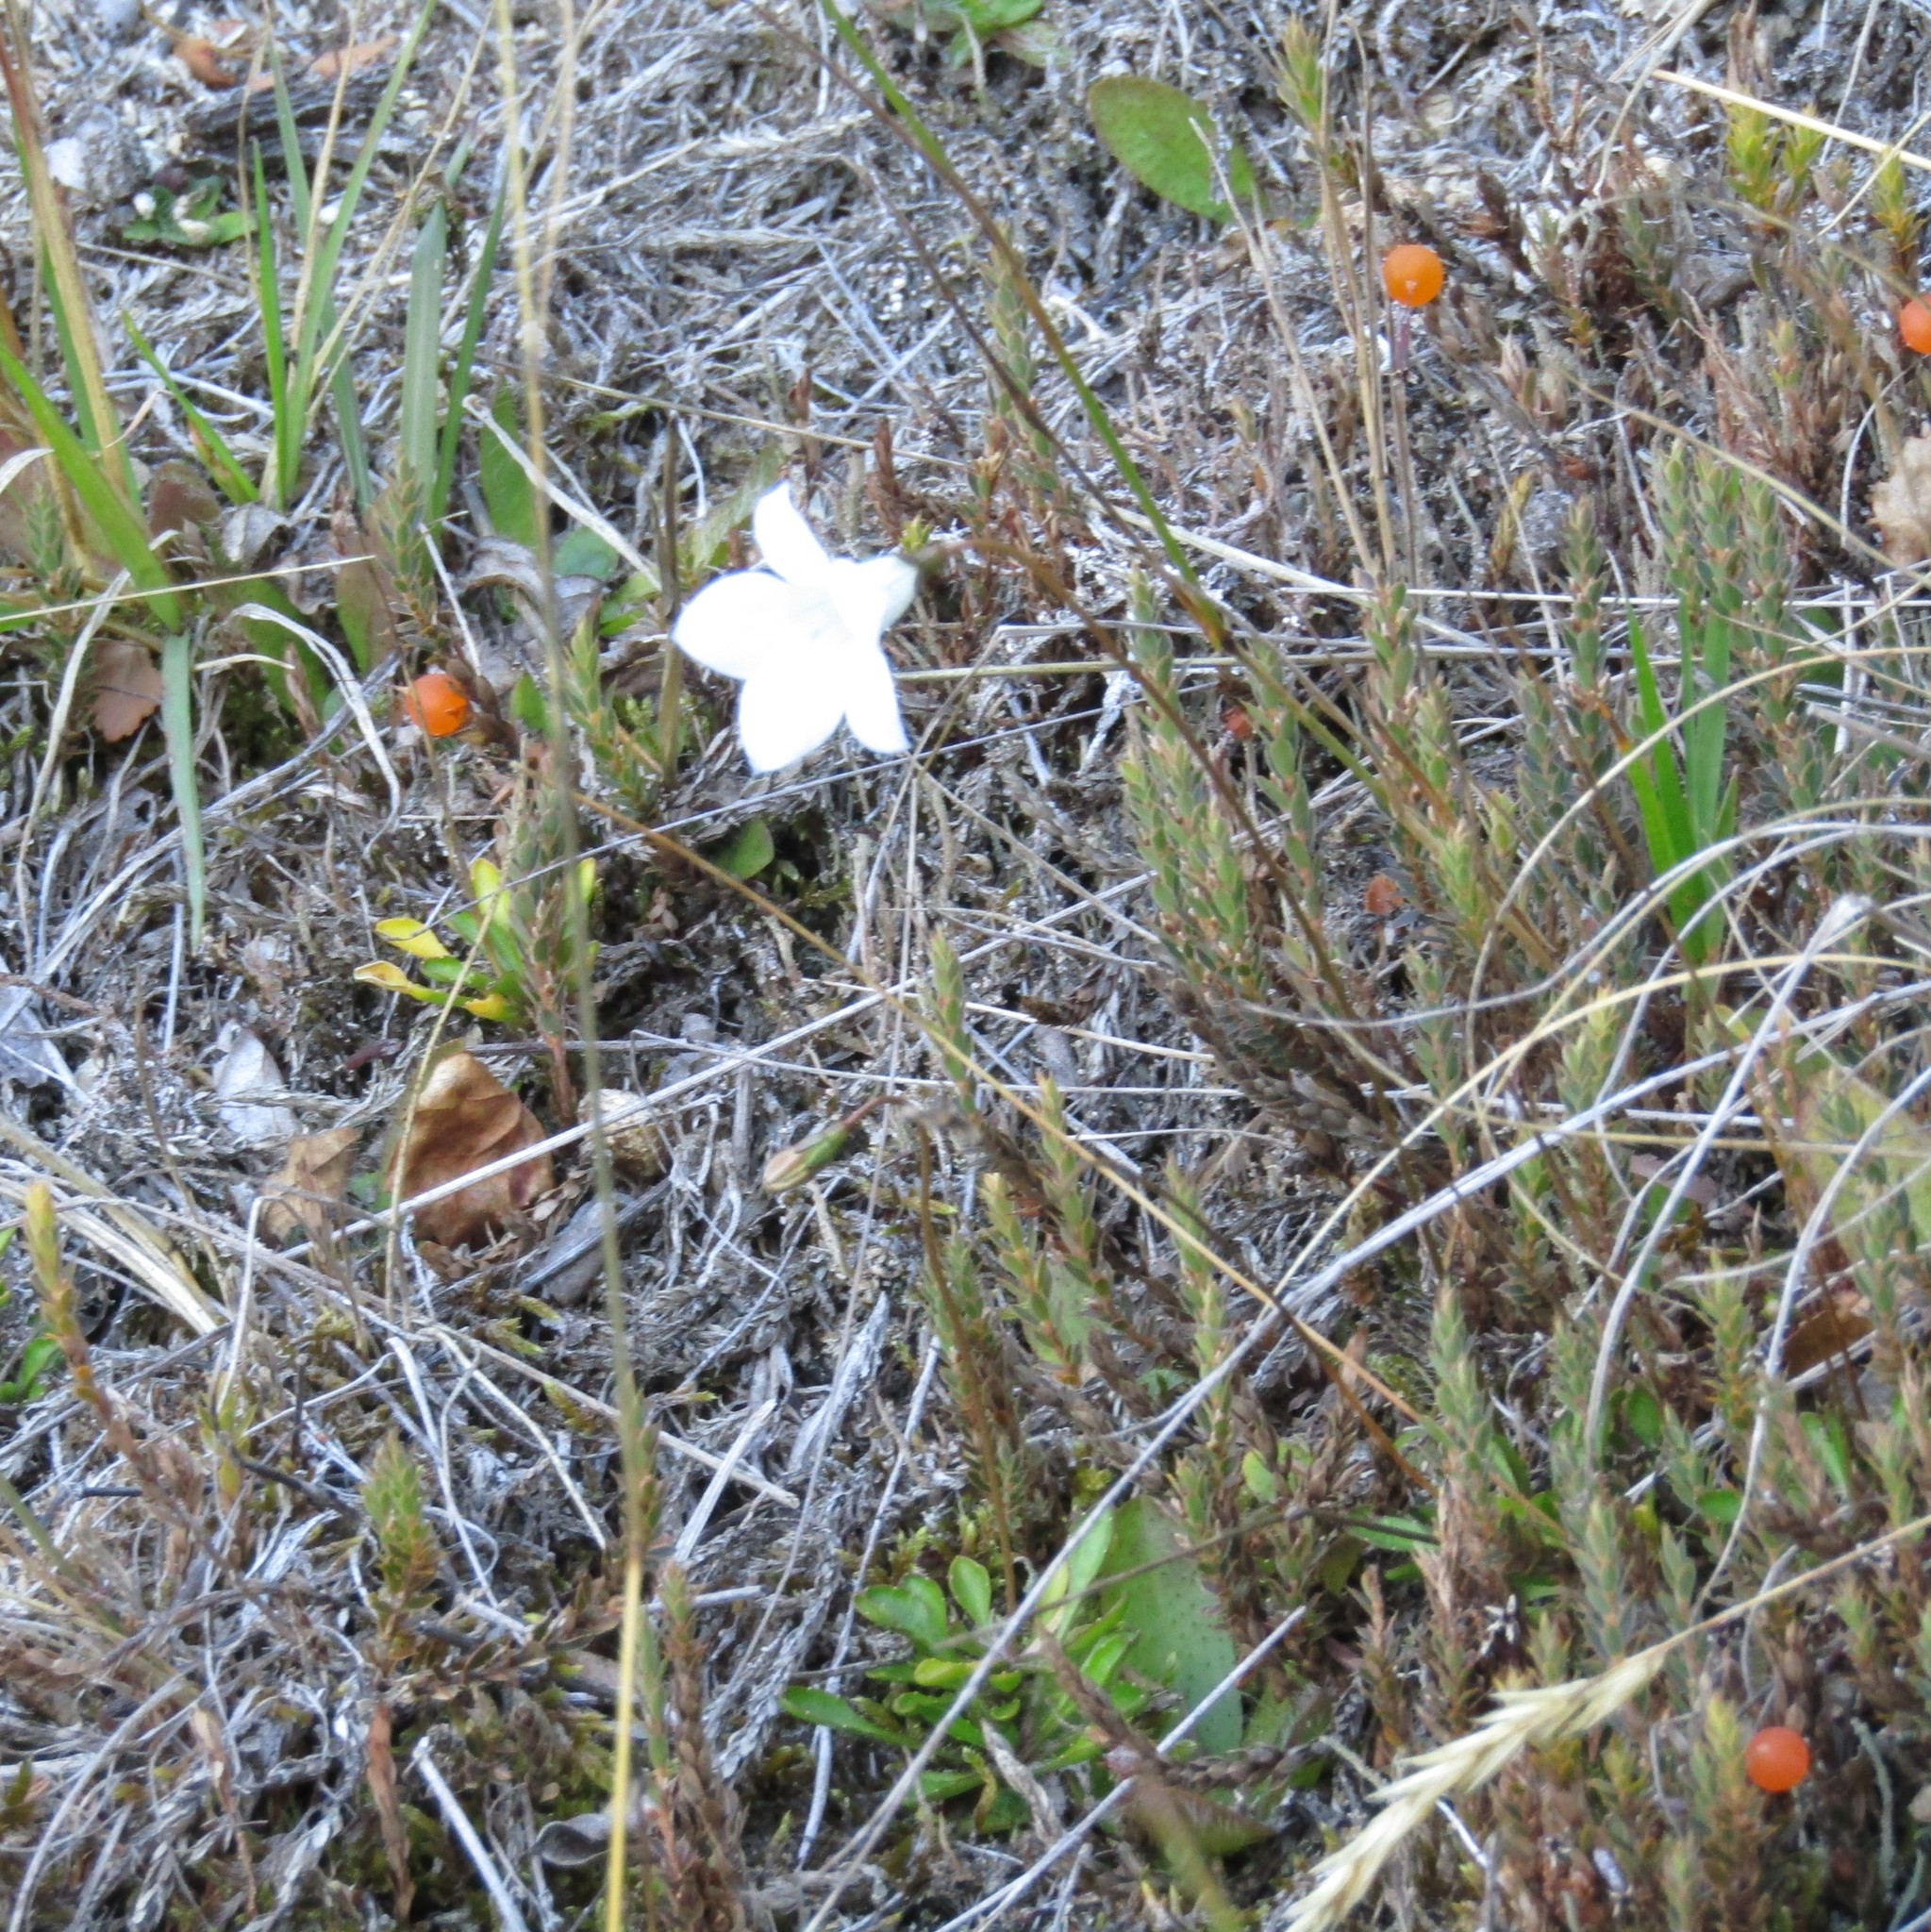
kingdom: Plantae
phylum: Tracheophyta
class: Magnoliopsida
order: Ericales
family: Ericaceae
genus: Styphelia
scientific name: Styphelia nesophila
